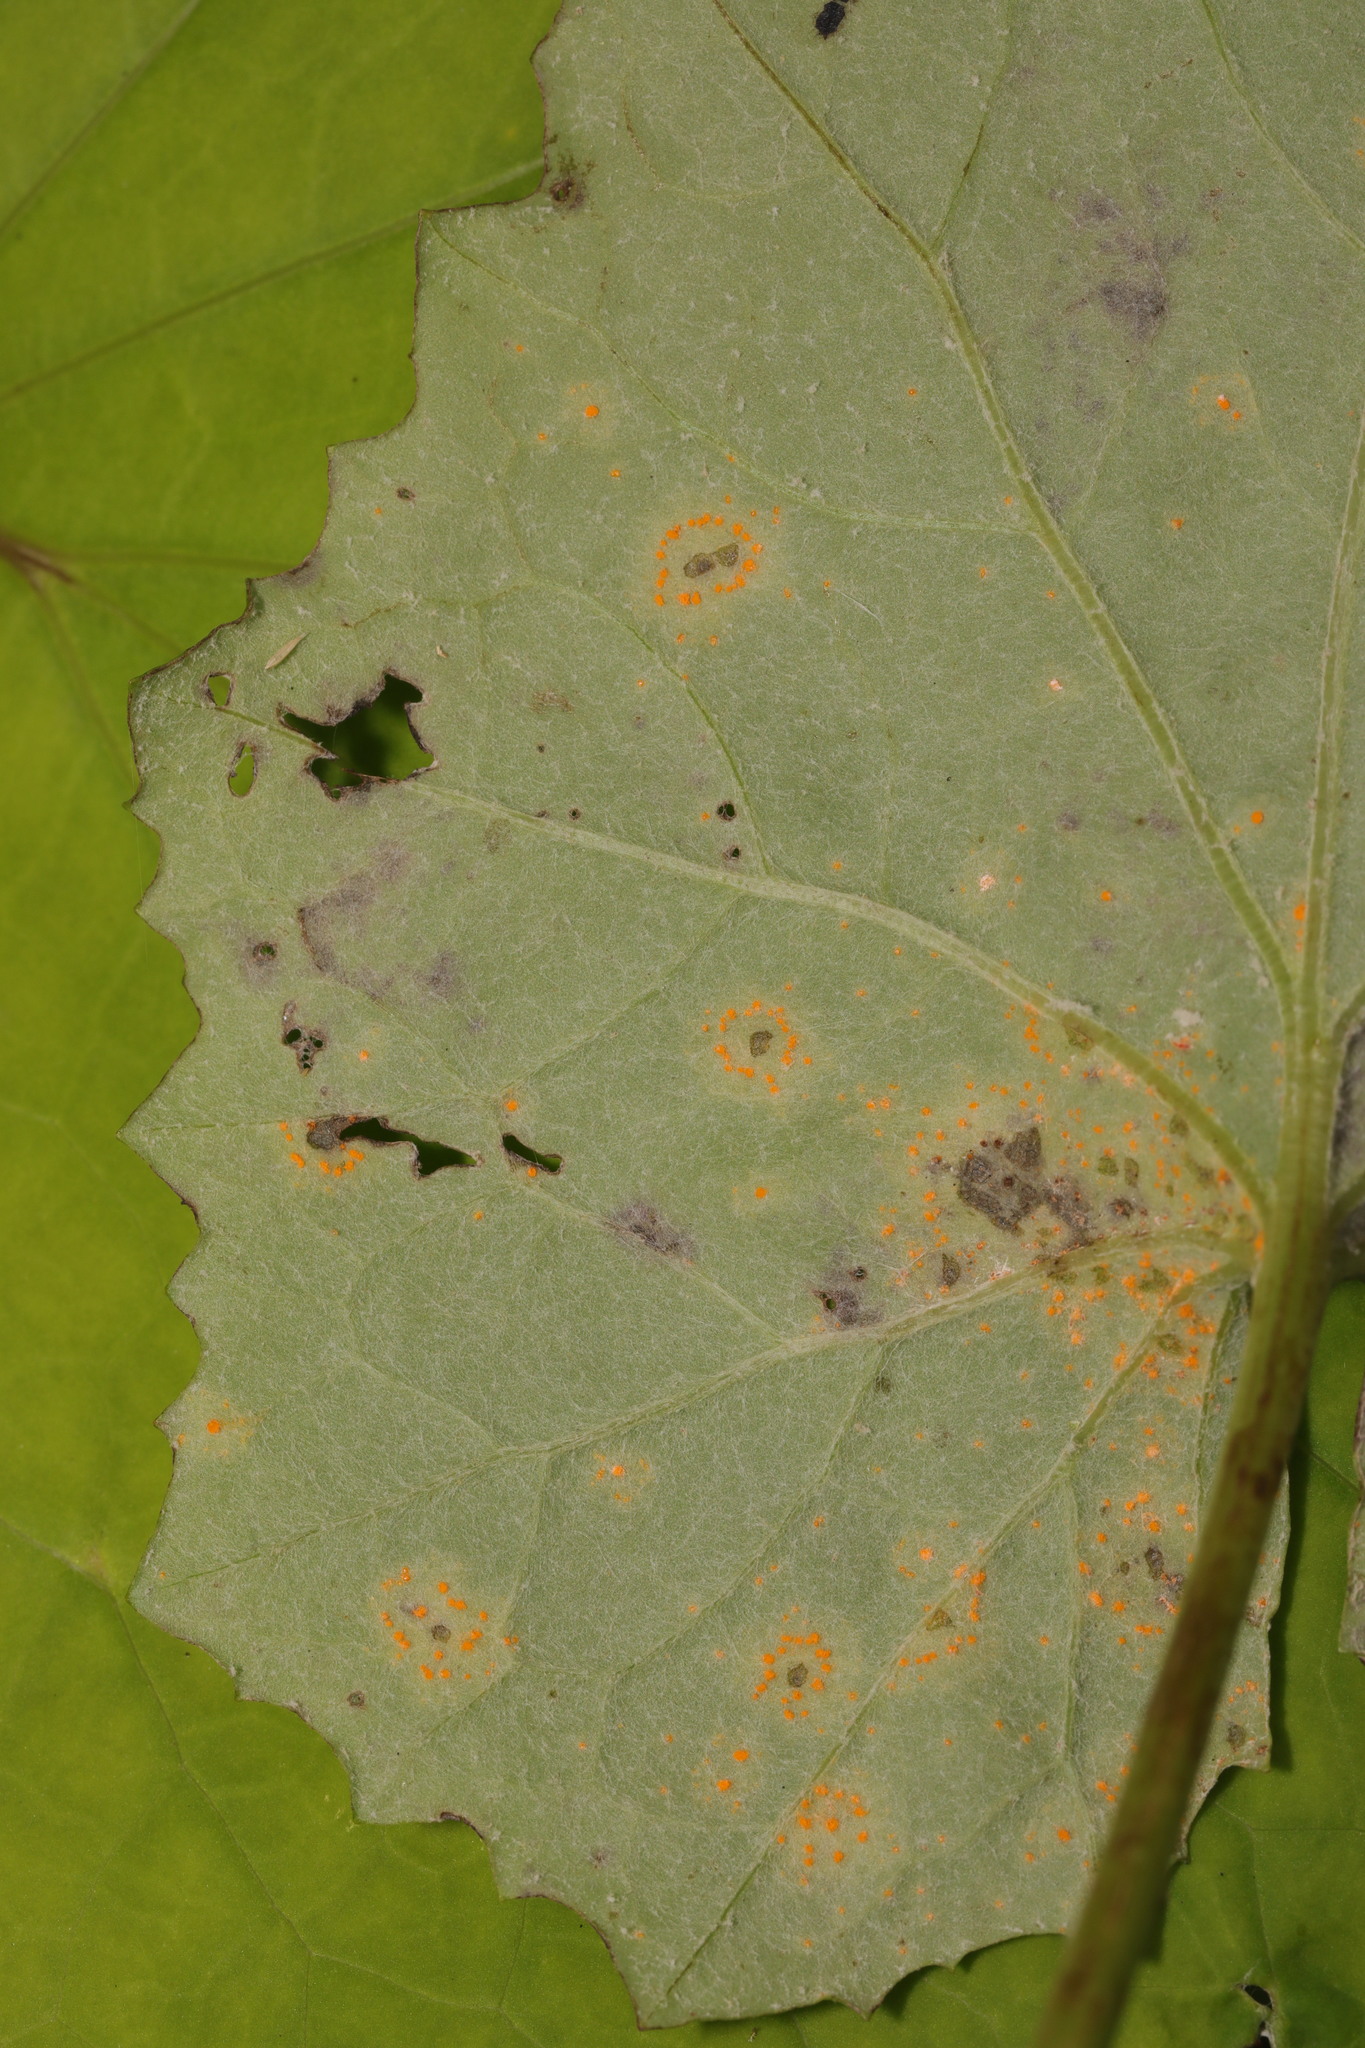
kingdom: Fungi
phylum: Basidiomycota
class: Pucciniomycetes
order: Pucciniales
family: Pucciniaceae
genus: Puccinia
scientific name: Puccinia poarum
